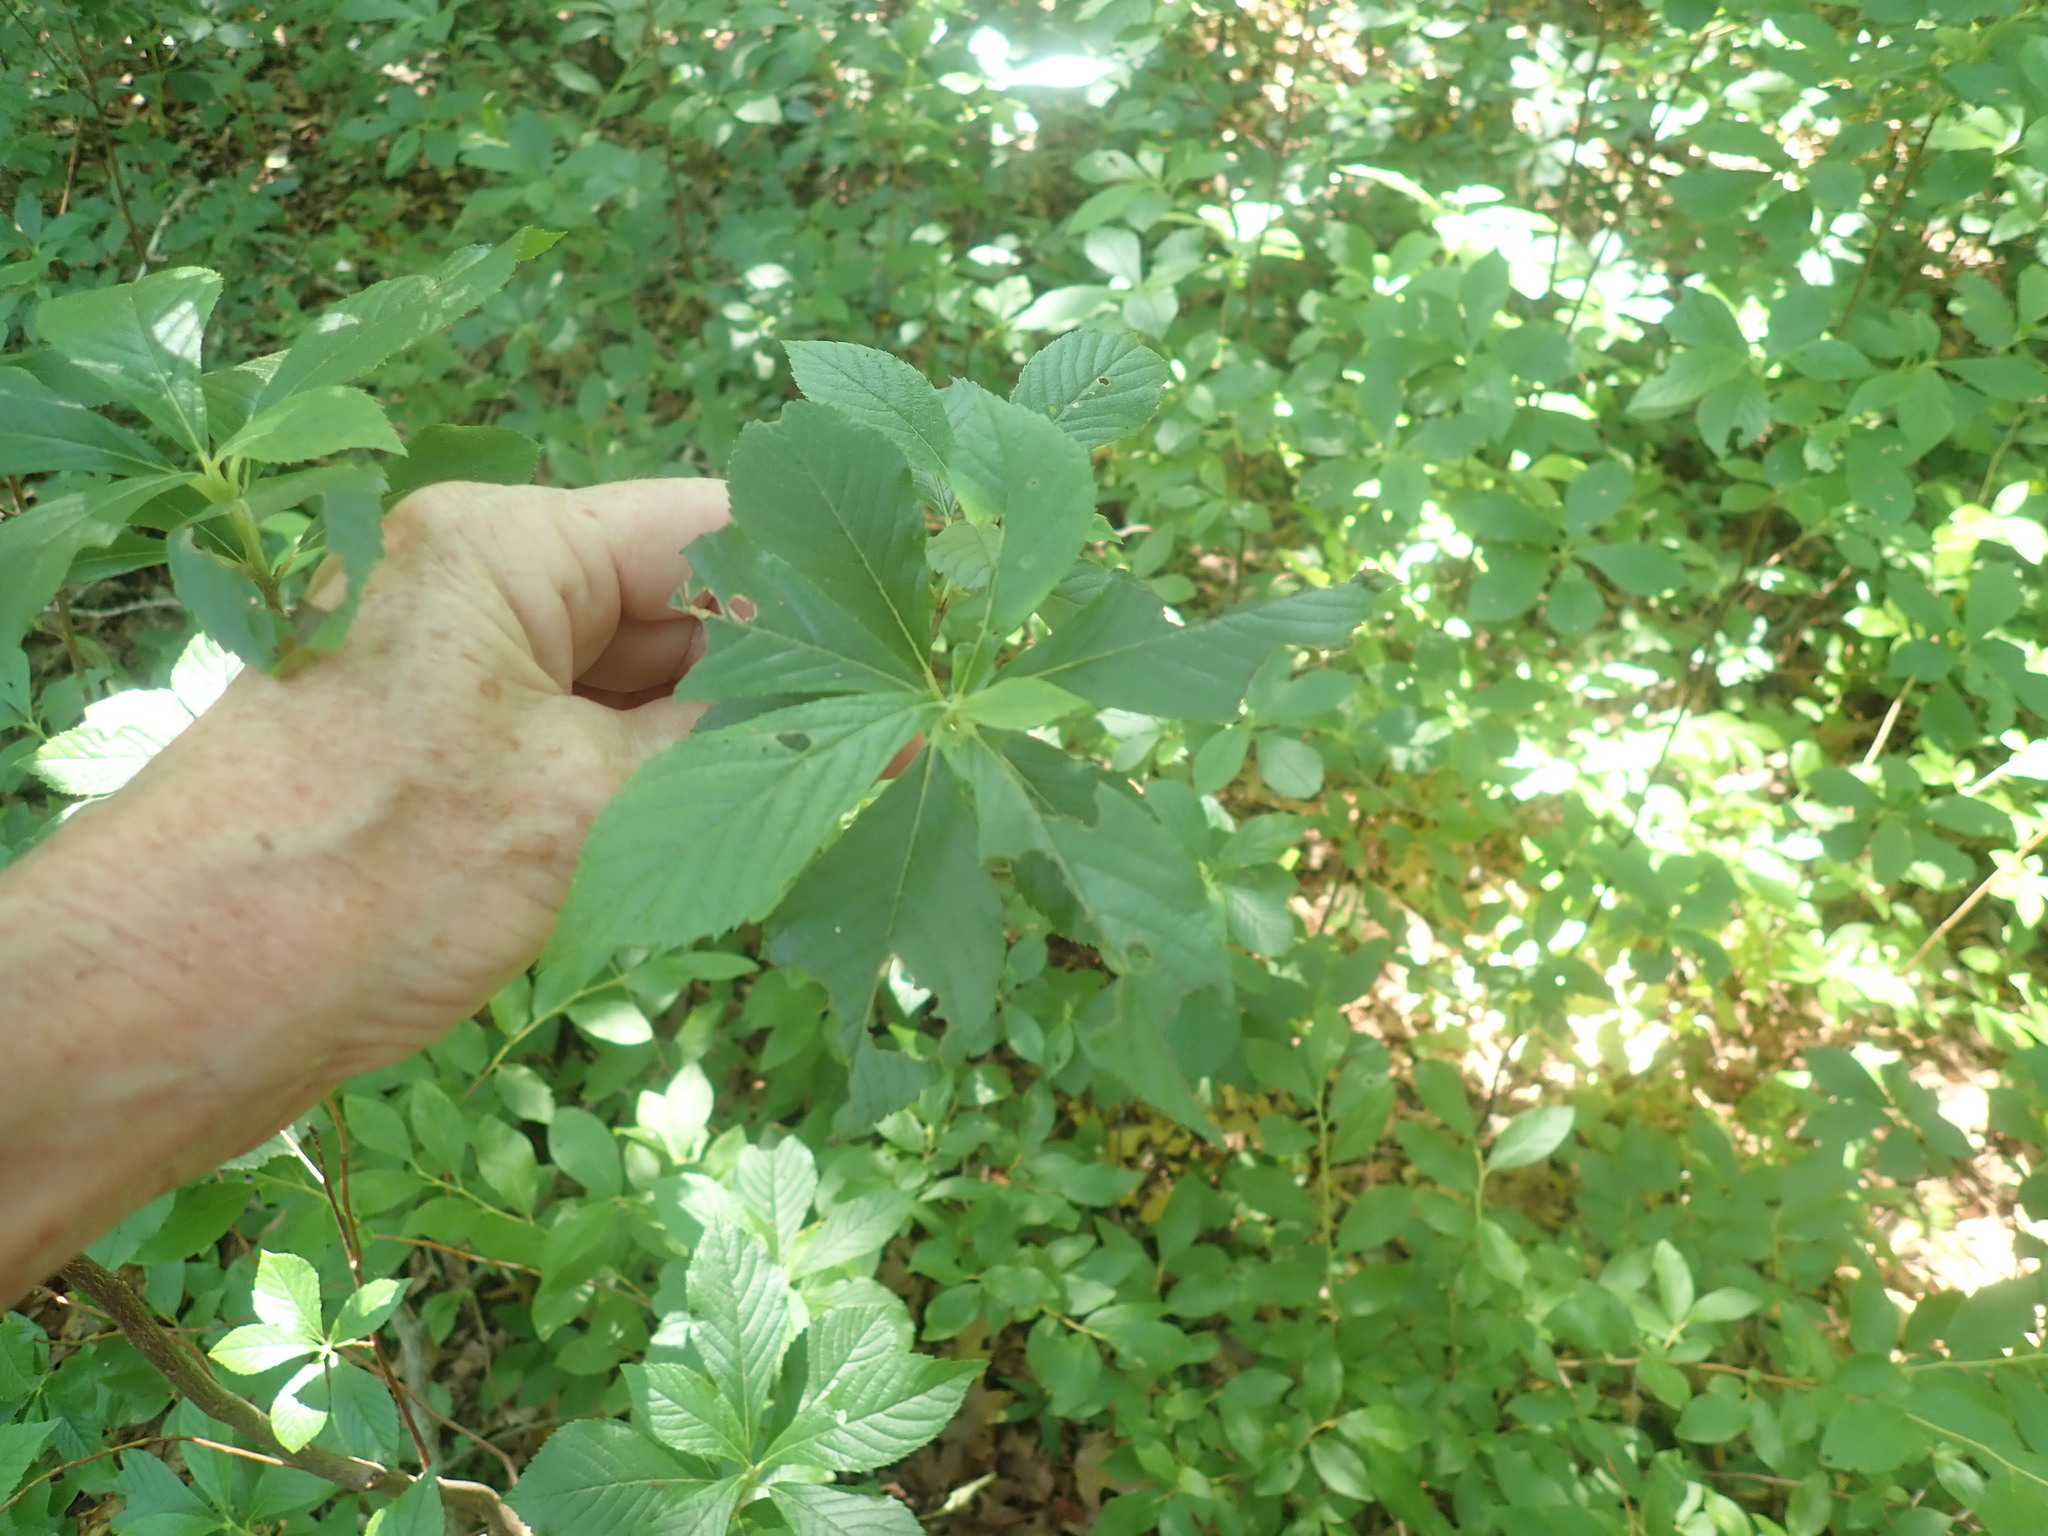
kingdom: Plantae
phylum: Tracheophyta
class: Magnoliopsida
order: Ericales
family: Clethraceae
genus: Clethra
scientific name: Clethra alnifolia
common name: Sweet pepperbush
